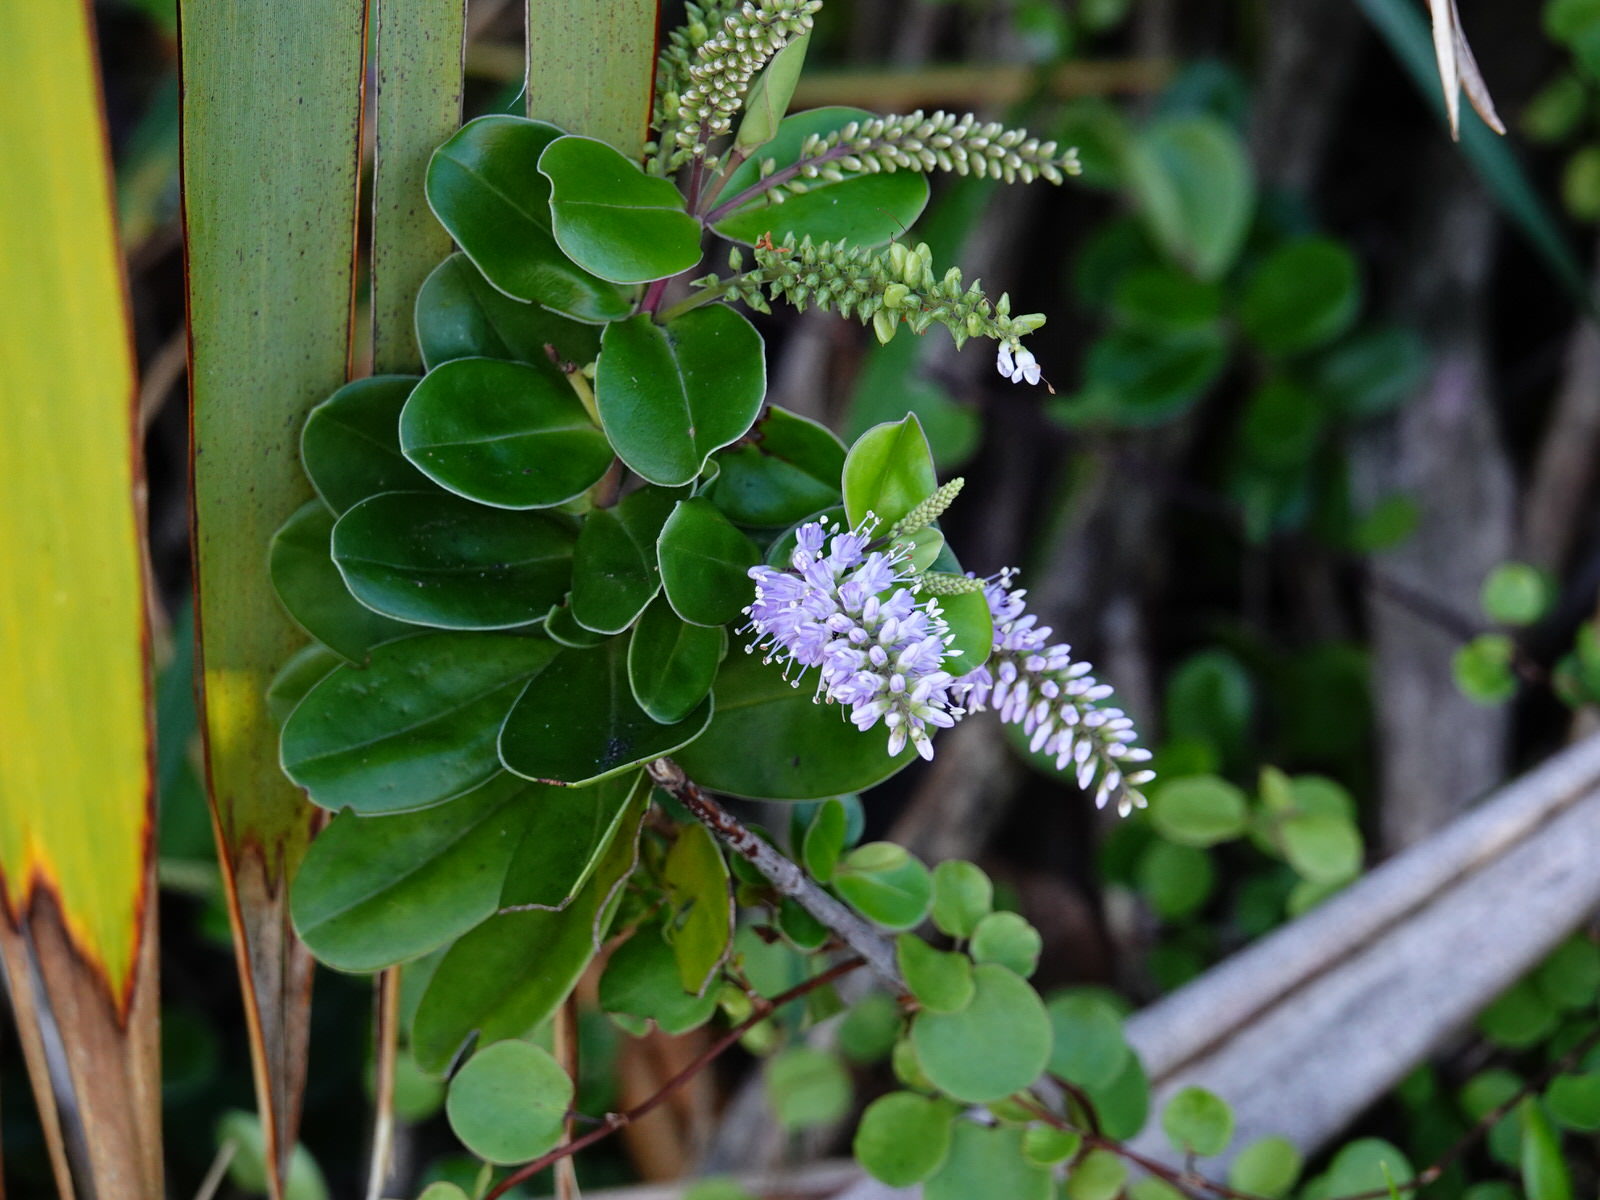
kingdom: Plantae
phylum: Tracheophyta
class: Magnoliopsida
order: Lamiales
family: Plantaginaceae
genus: Veronica
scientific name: Veronica obtusata
